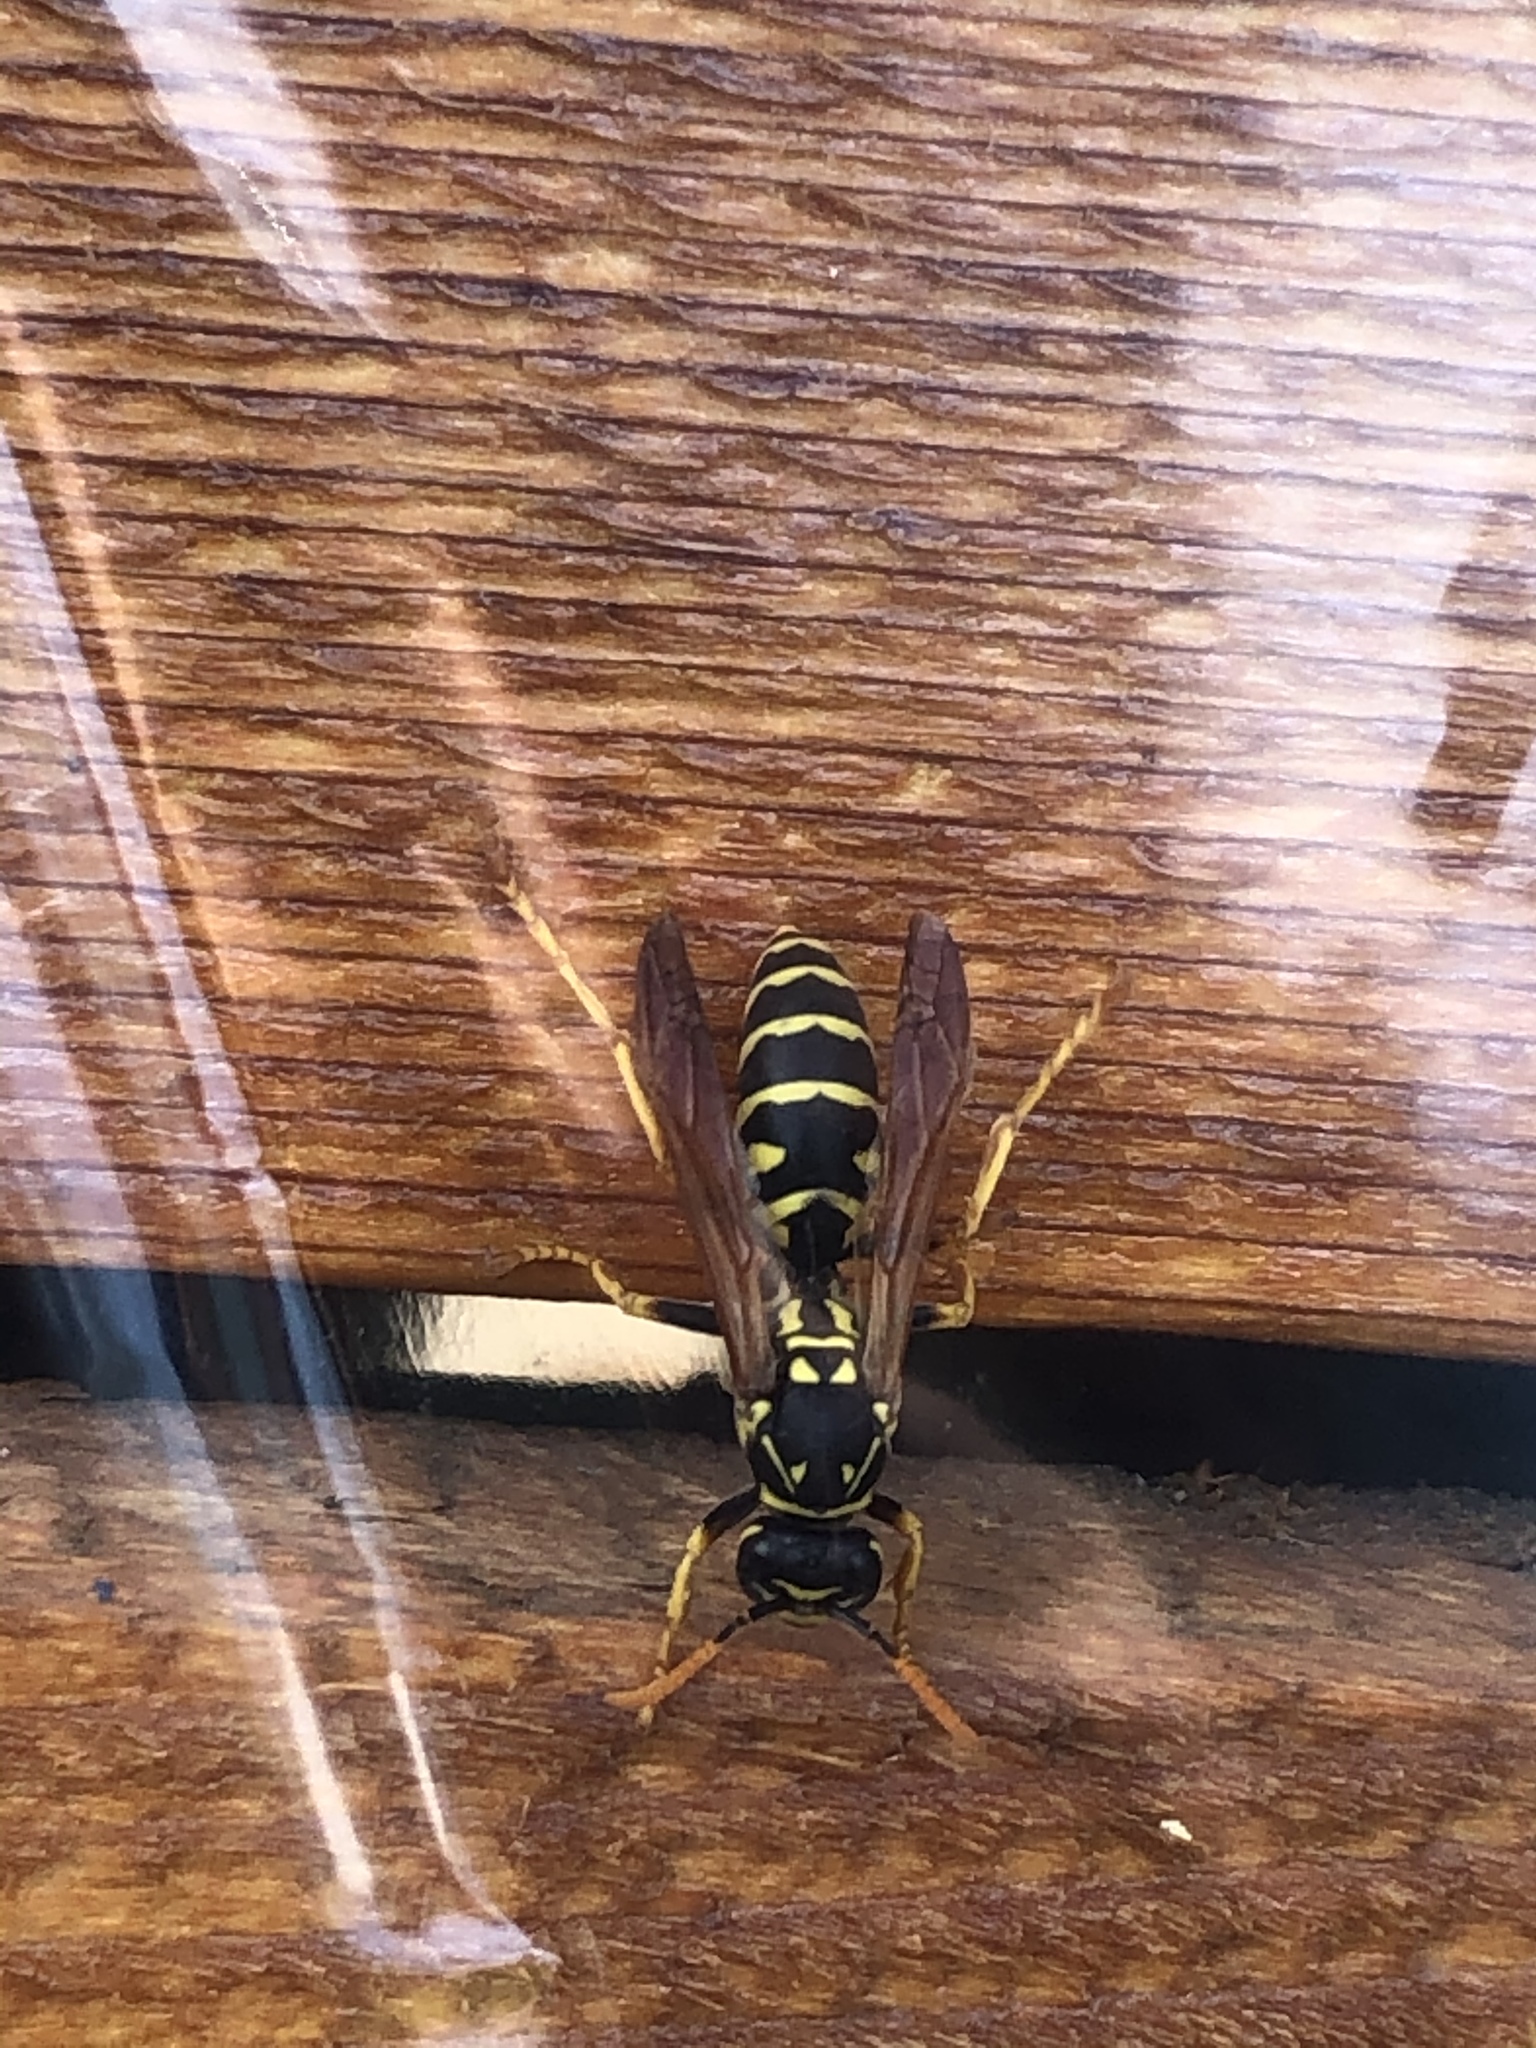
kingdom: Animalia
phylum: Arthropoda
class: Insecta
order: Hymenoptera
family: Eumenidae
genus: Polistes
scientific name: Polistes dominula
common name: Paper wasp
